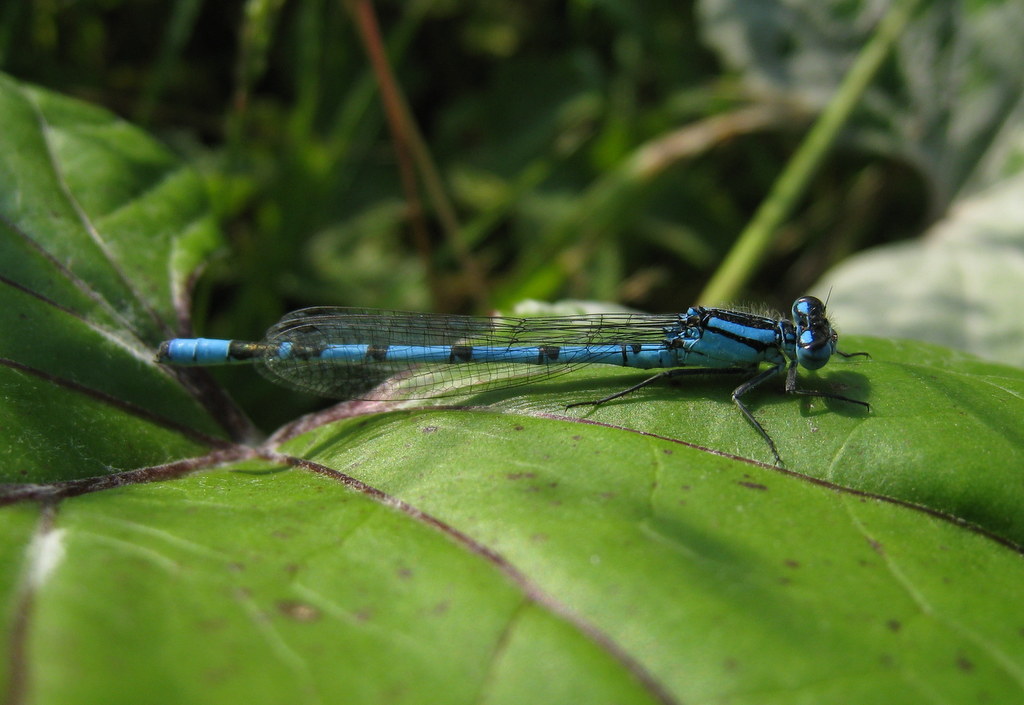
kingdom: Animalia
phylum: Arthropoda
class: Insecta
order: Odonata
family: Coenagrionidae
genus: Enallagma
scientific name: Enallagma cyathigerum
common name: Common blue damselfly
